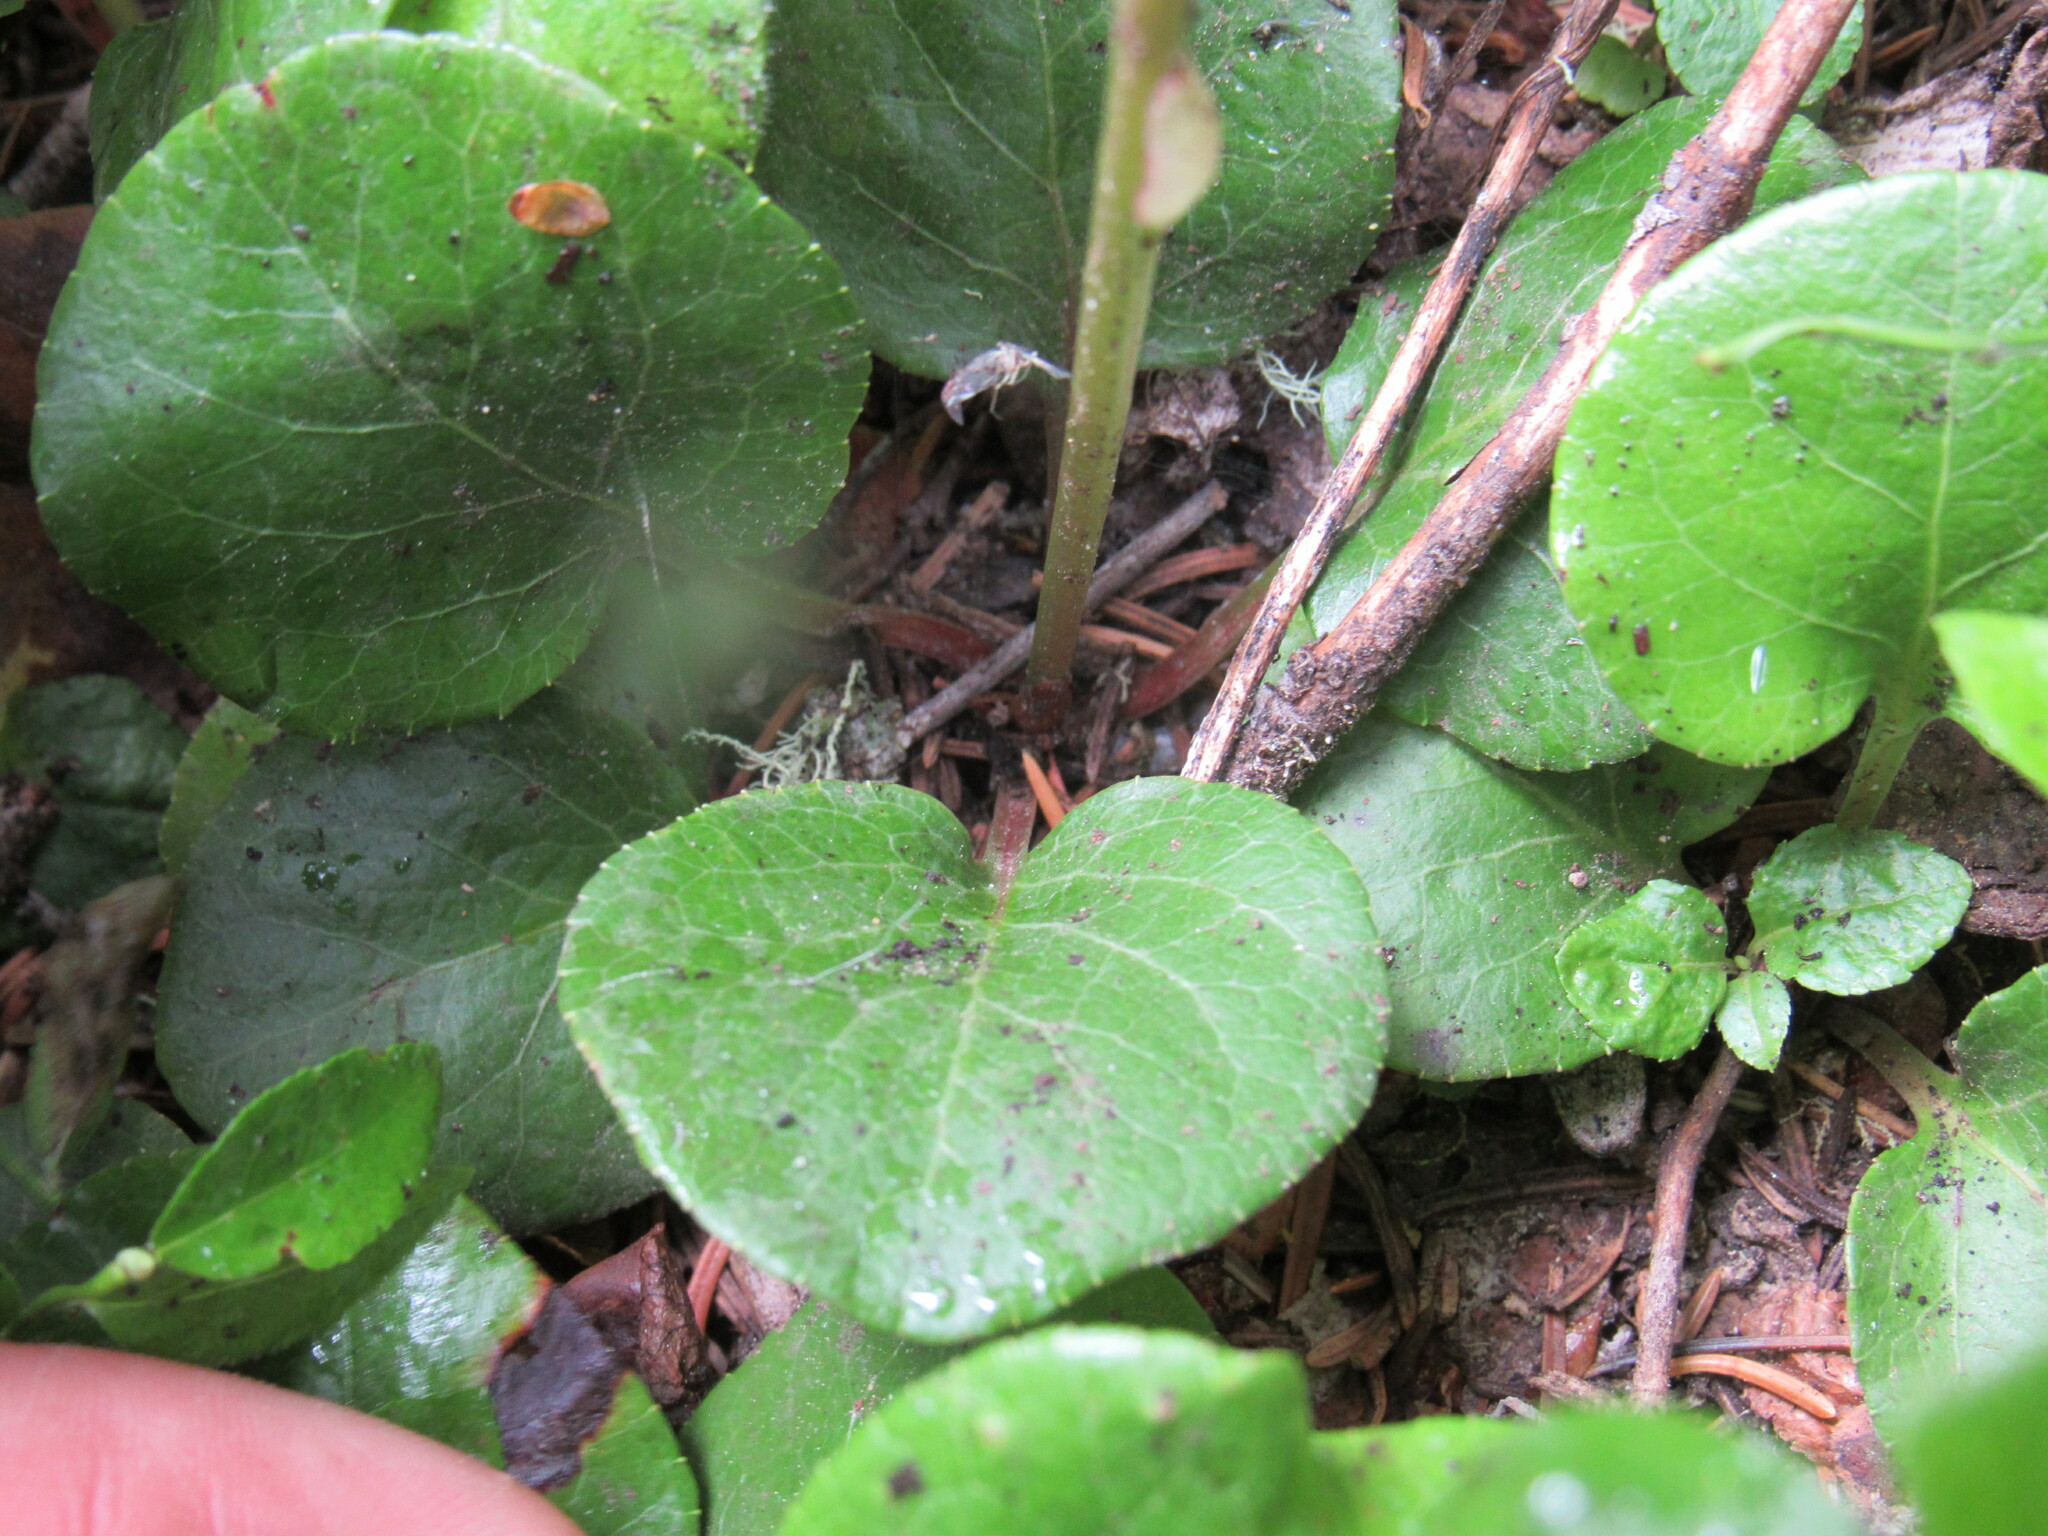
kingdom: Plantae
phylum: Tracheophyta
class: Magnoliopsida
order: Ericales
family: Ericaceae
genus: Pyrola
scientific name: Pyrola asarifolia
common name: Bog wintergreen
